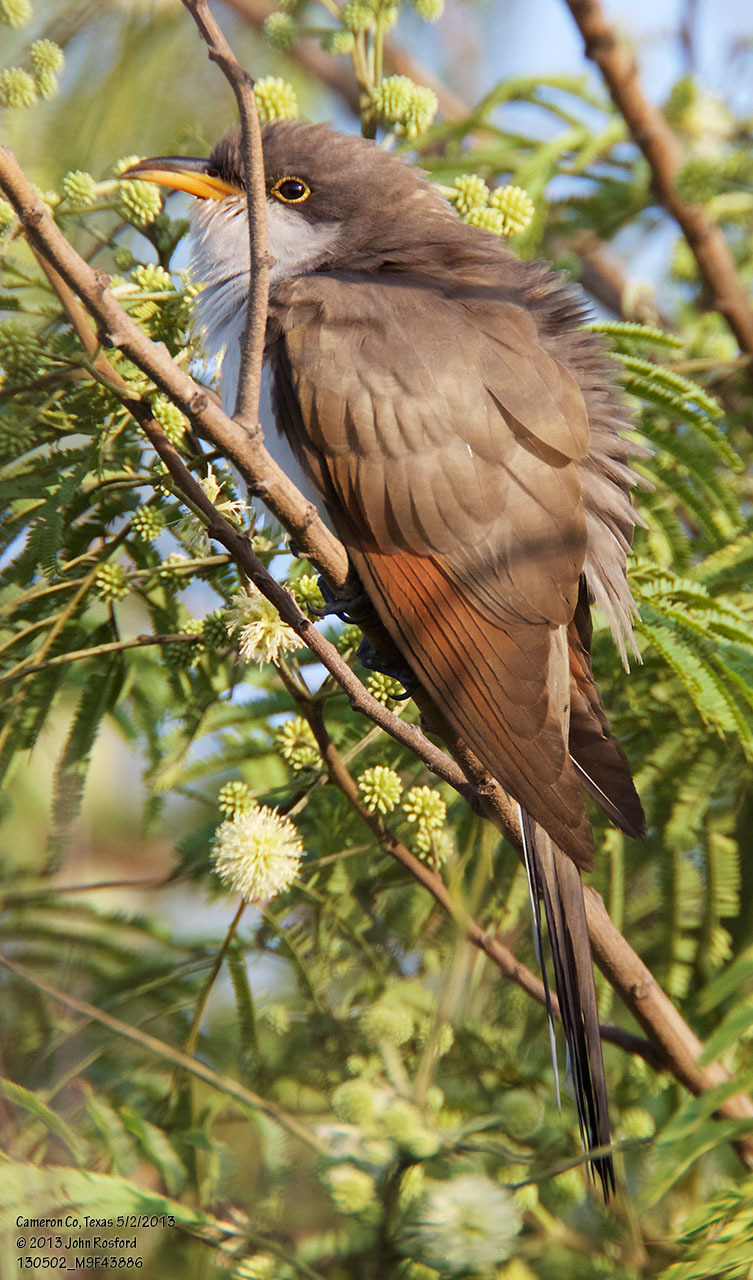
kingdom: Animalia
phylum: Chordata
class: Aves
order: Cuculiformes
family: Cuculidae
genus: Coccyzus
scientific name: Coccyzus americanus
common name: Yellow-billed cuckoo
